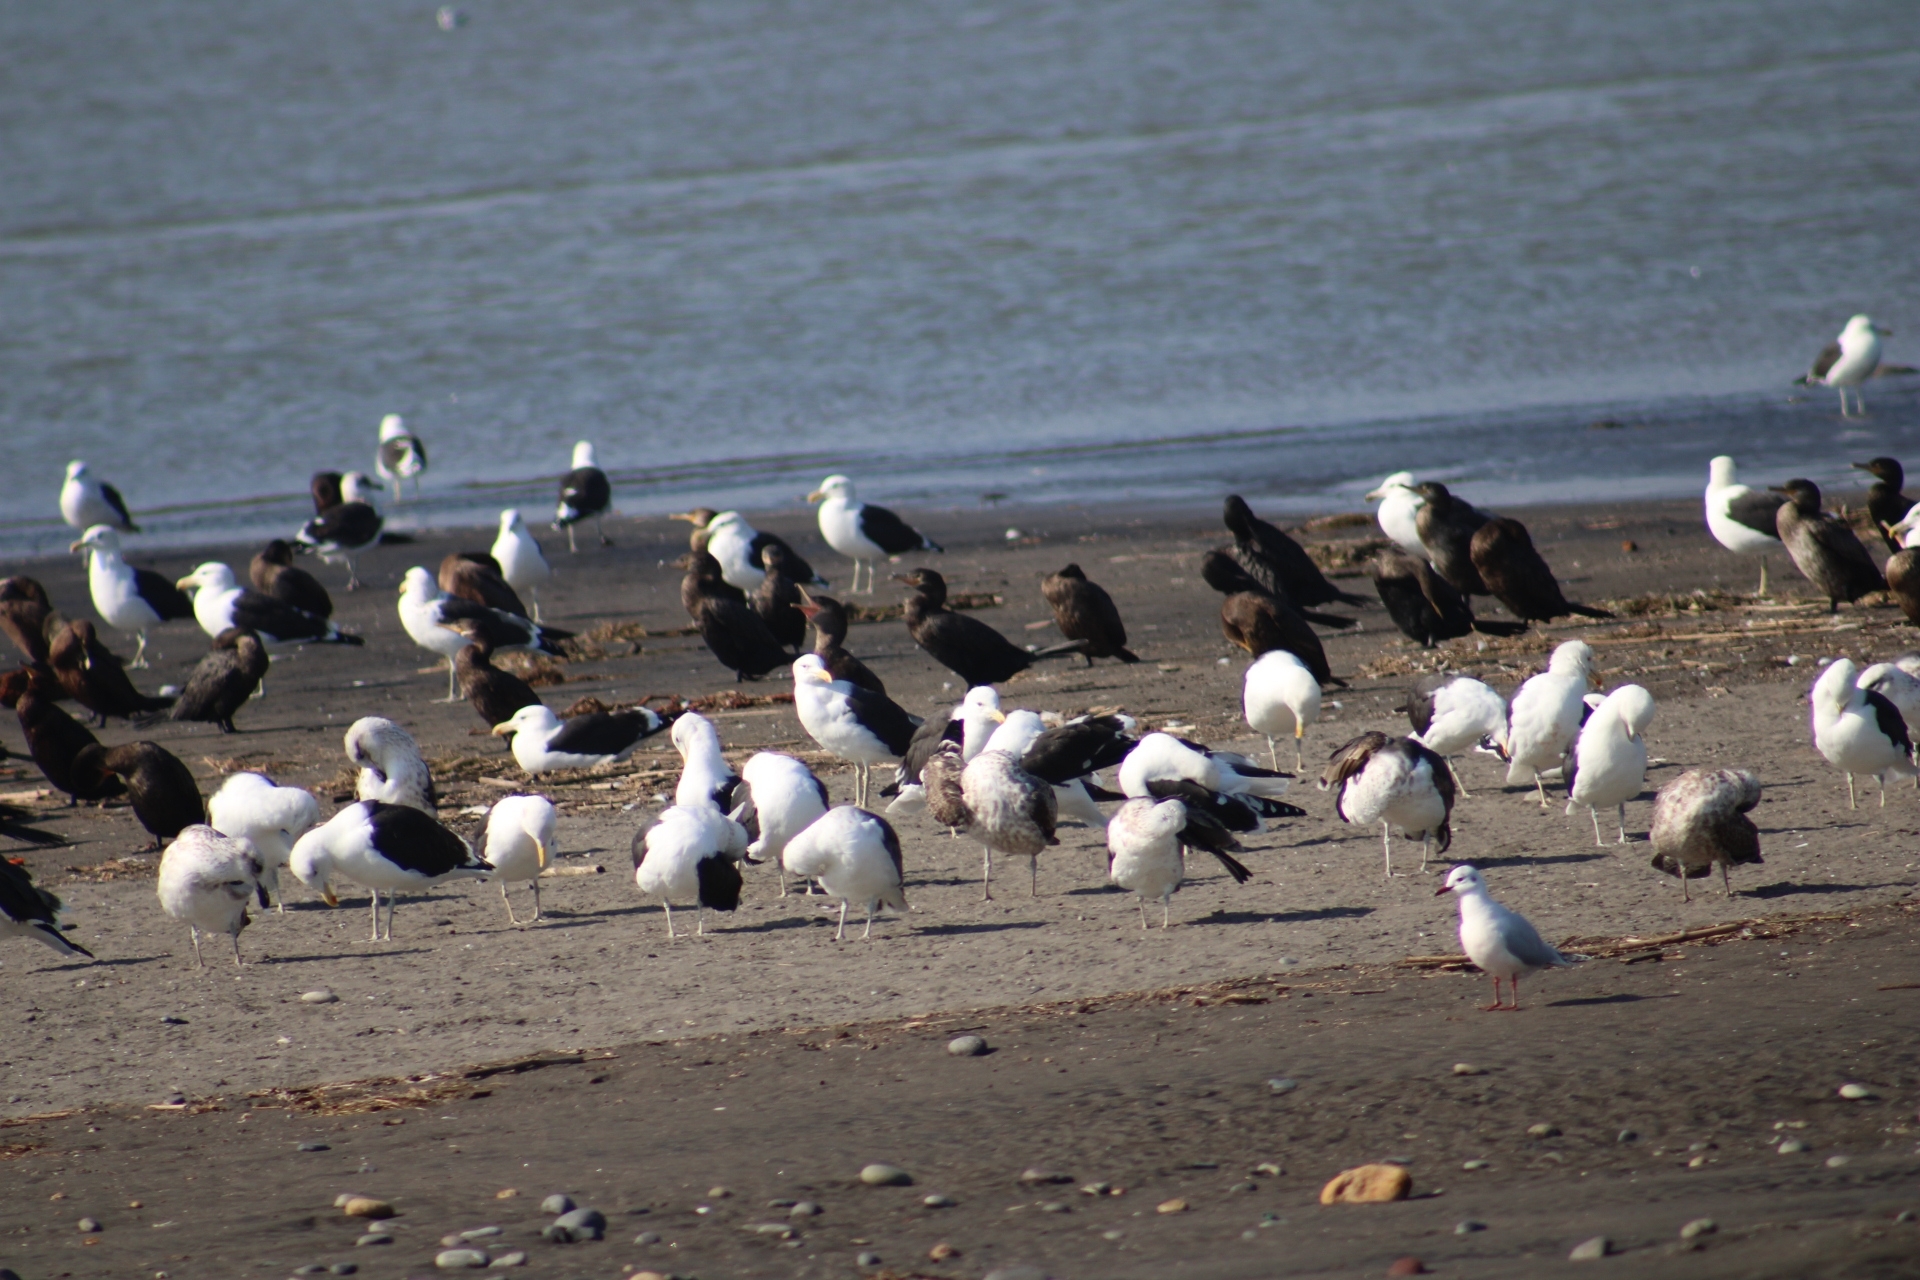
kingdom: Animalia
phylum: Chordata
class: Aves
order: Suliformes
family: Phalacrocoracidae
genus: Phalacrocorax
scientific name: Phalacrocorax brasilianus
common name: Neotropic cormorant
